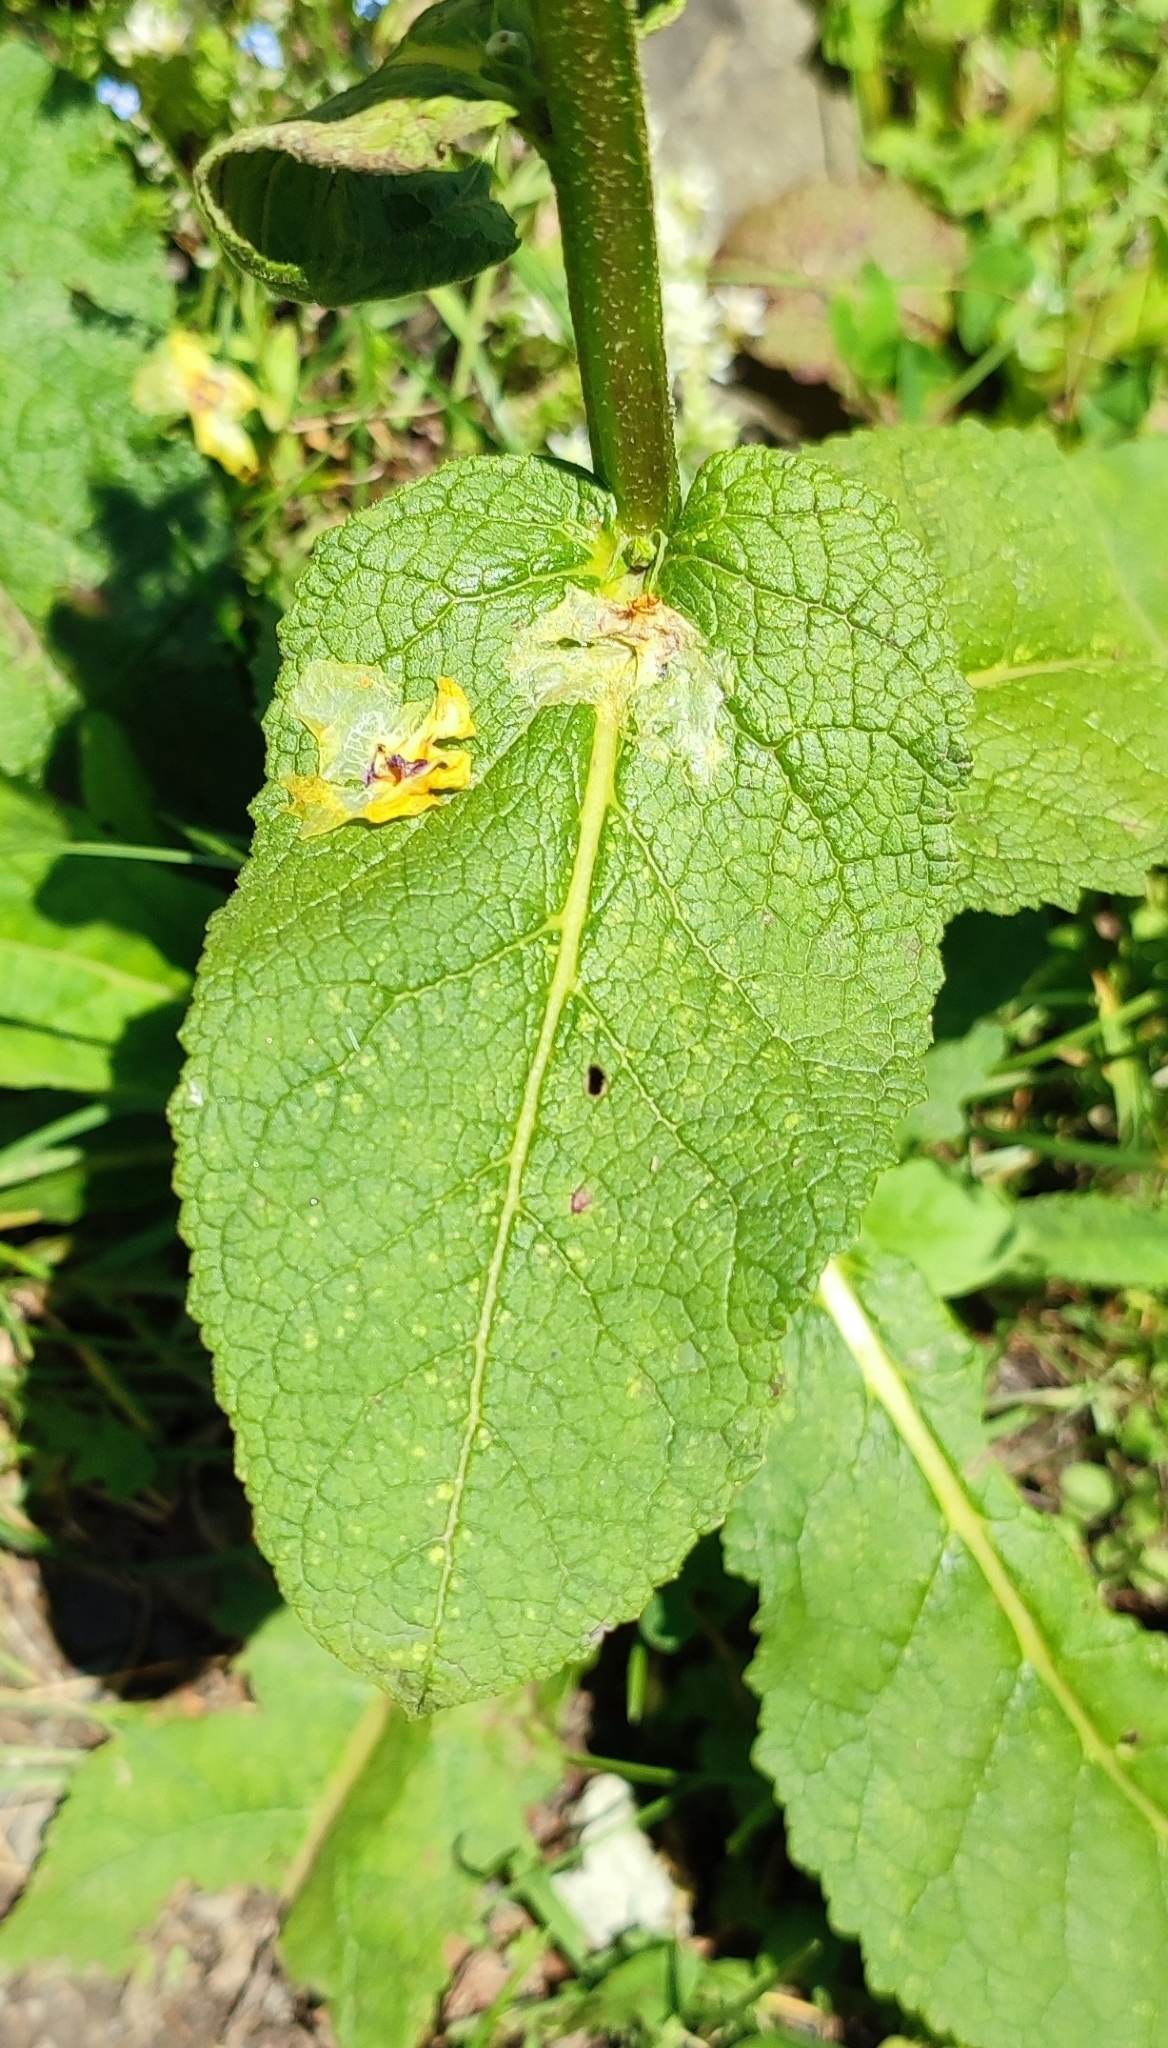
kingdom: Plantae
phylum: Tracheophyta
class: Magnoliopsida
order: Lamiales
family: Scrophulariaceae
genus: Verbascum
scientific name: Verbascum pyramidatum
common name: Caucasian mullein
